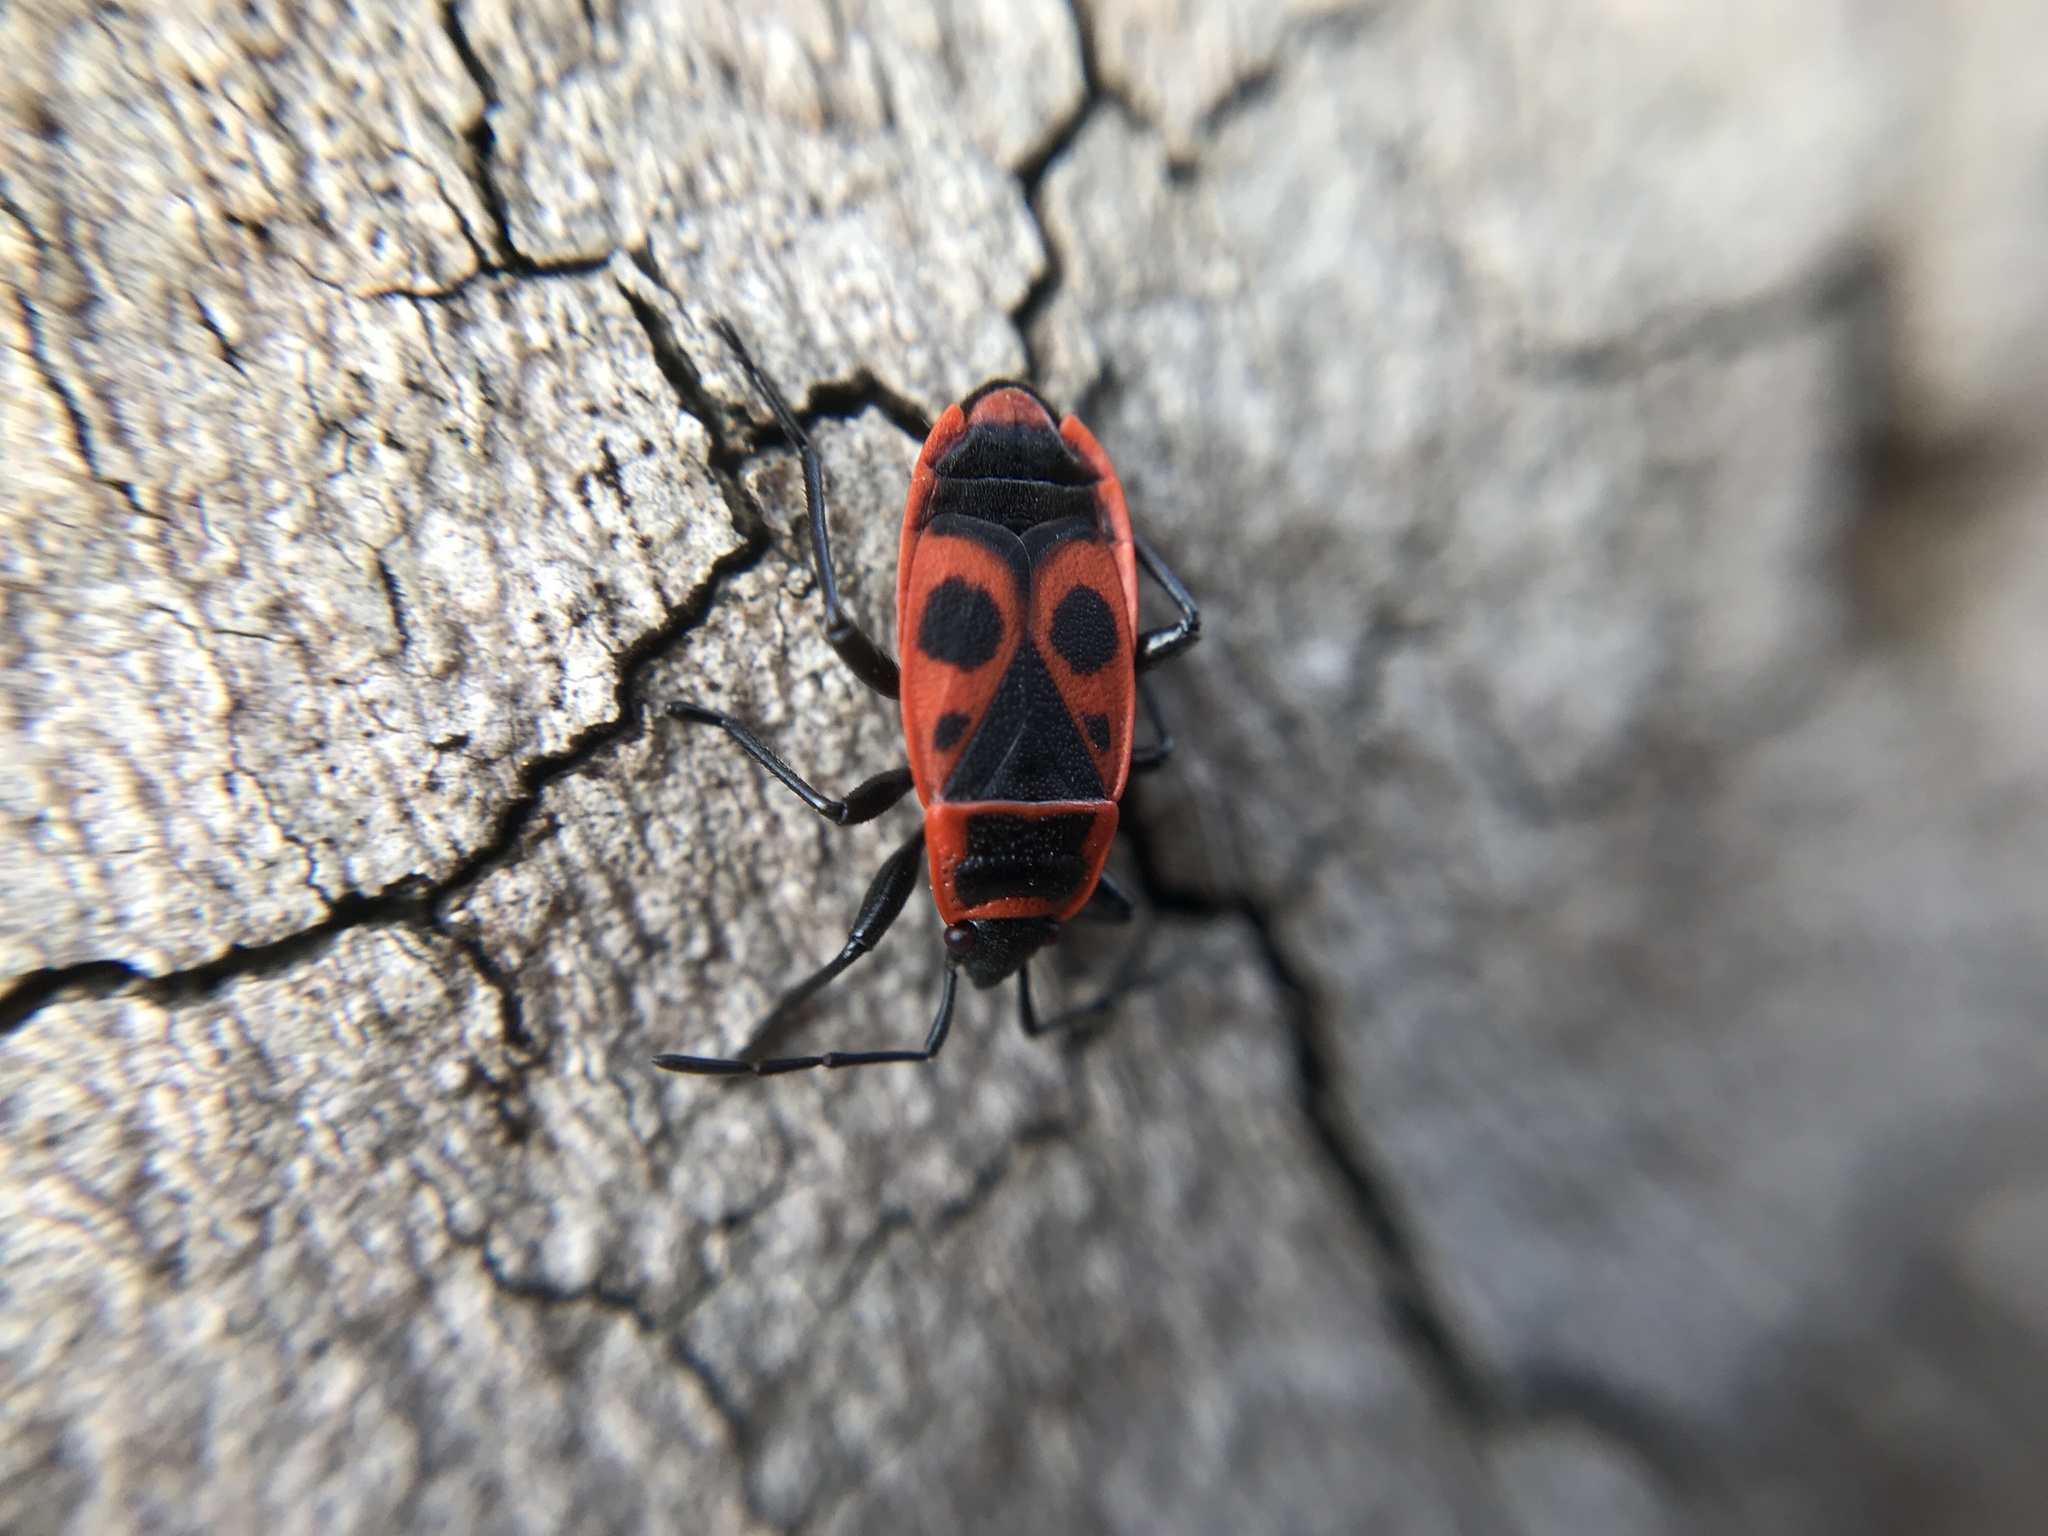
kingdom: Animalia
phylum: Arthropoda
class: Insecta
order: Hemiptera
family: Pyrrhocoridae
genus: Pyrrhocoris
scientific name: Pyrrhocoris apterus
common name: Firebug
